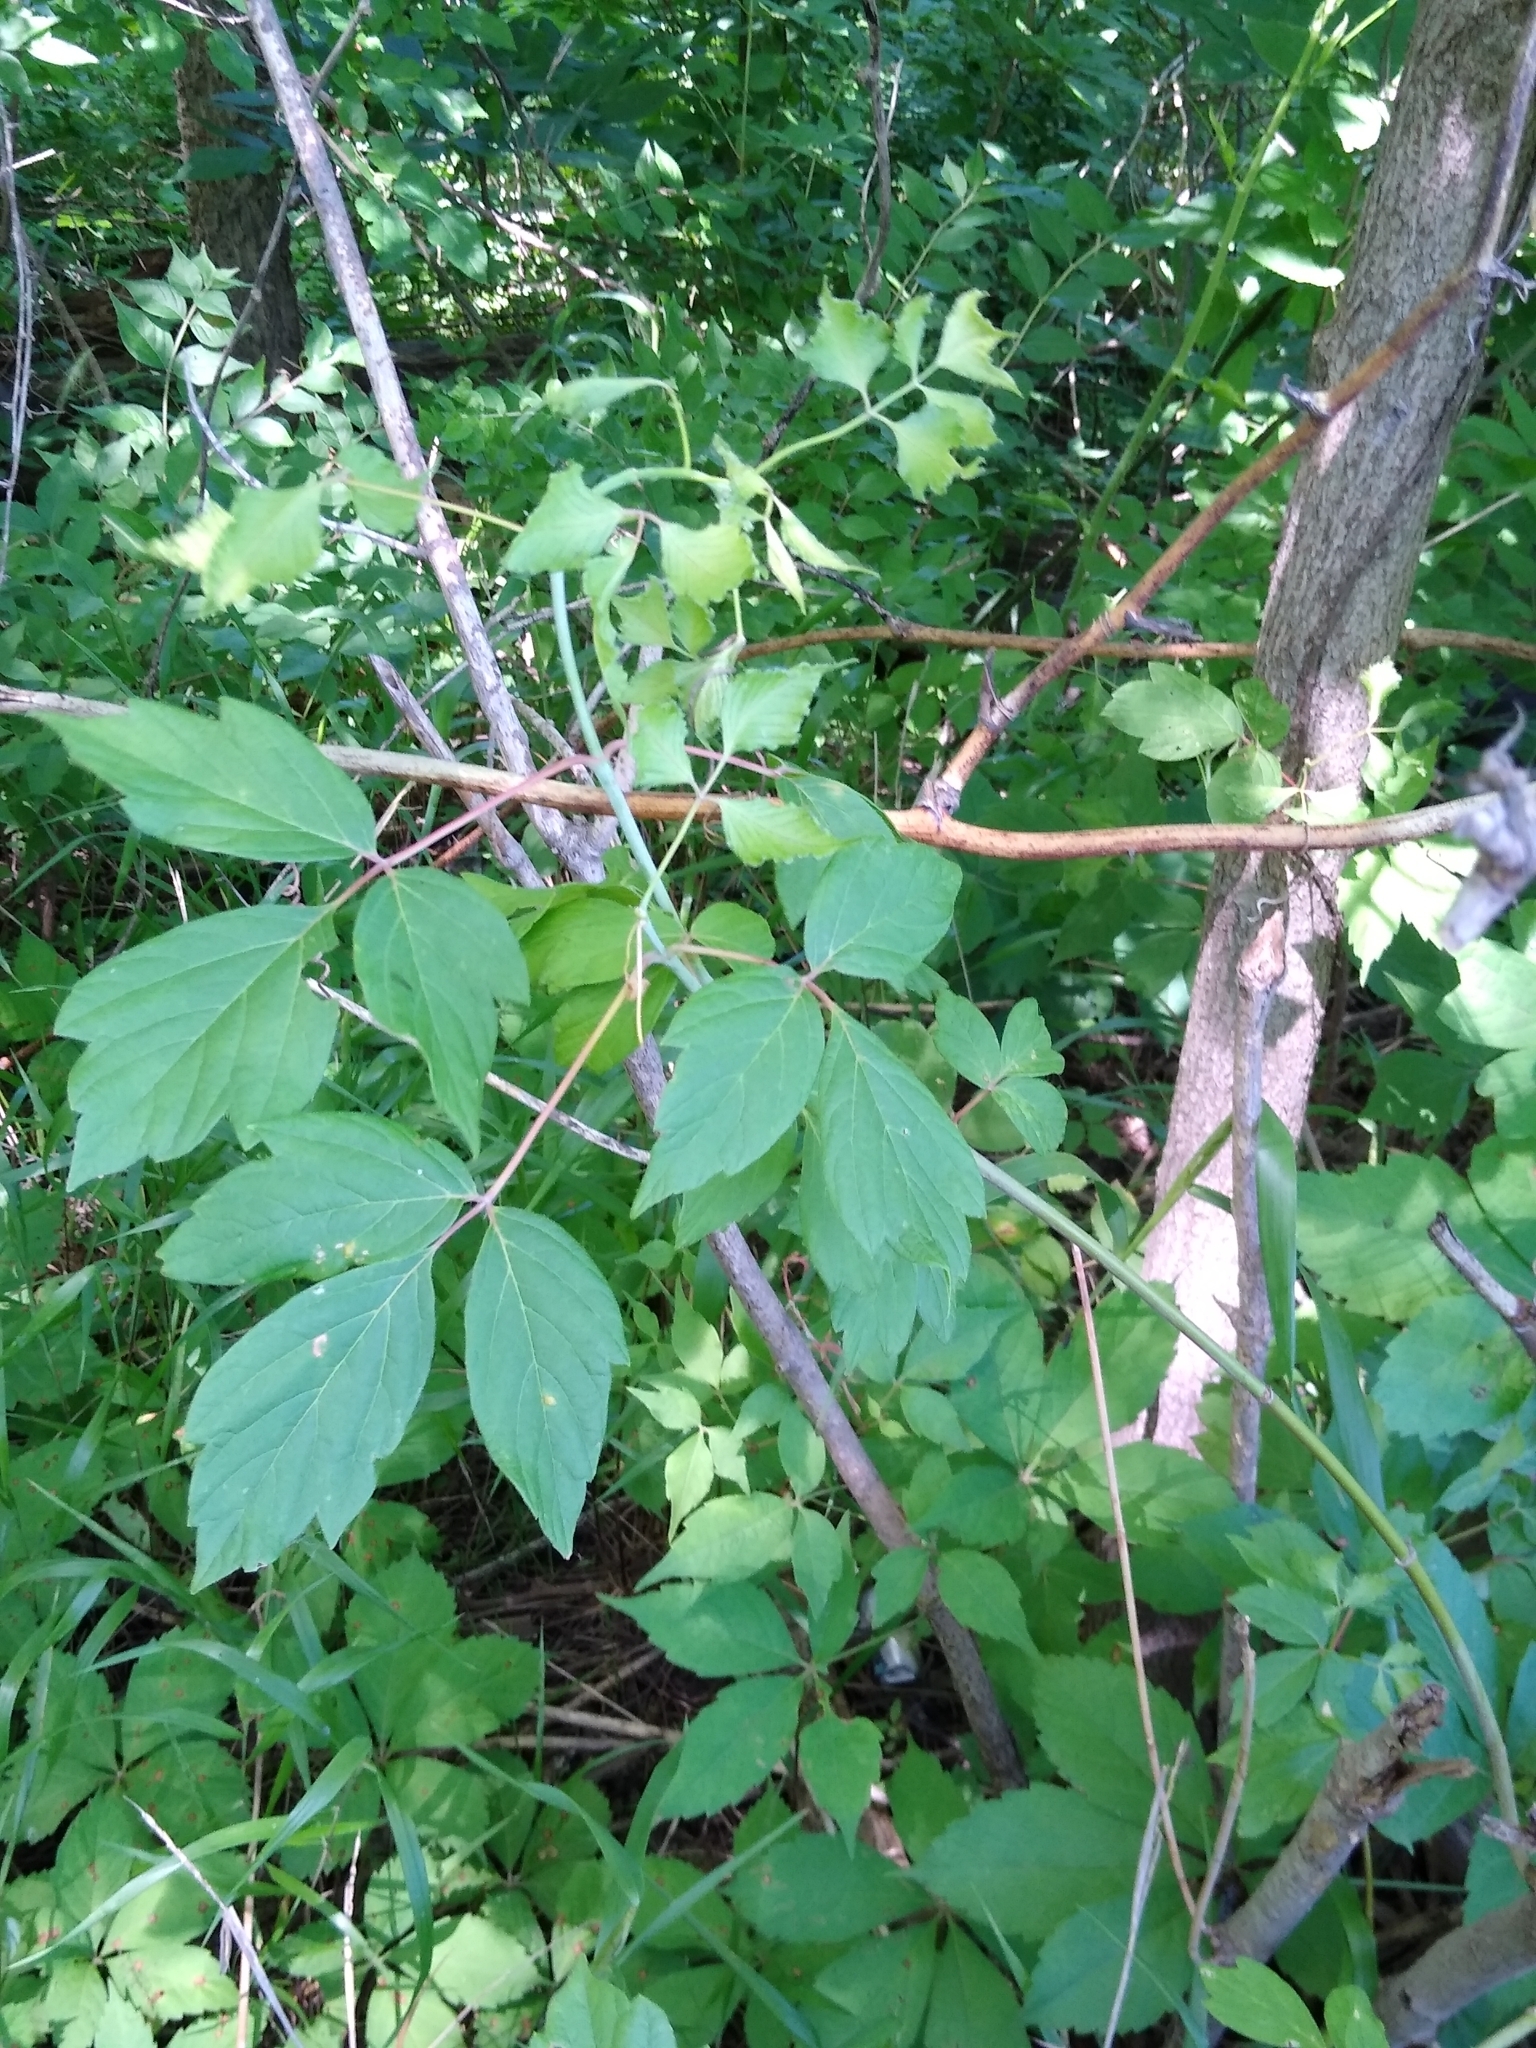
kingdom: Plantae
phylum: Tracheophyta
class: Magnoliopsida
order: Sapindales
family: Sapindaceae
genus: Acer
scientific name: Acer negundo
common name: Ashleaf maple
